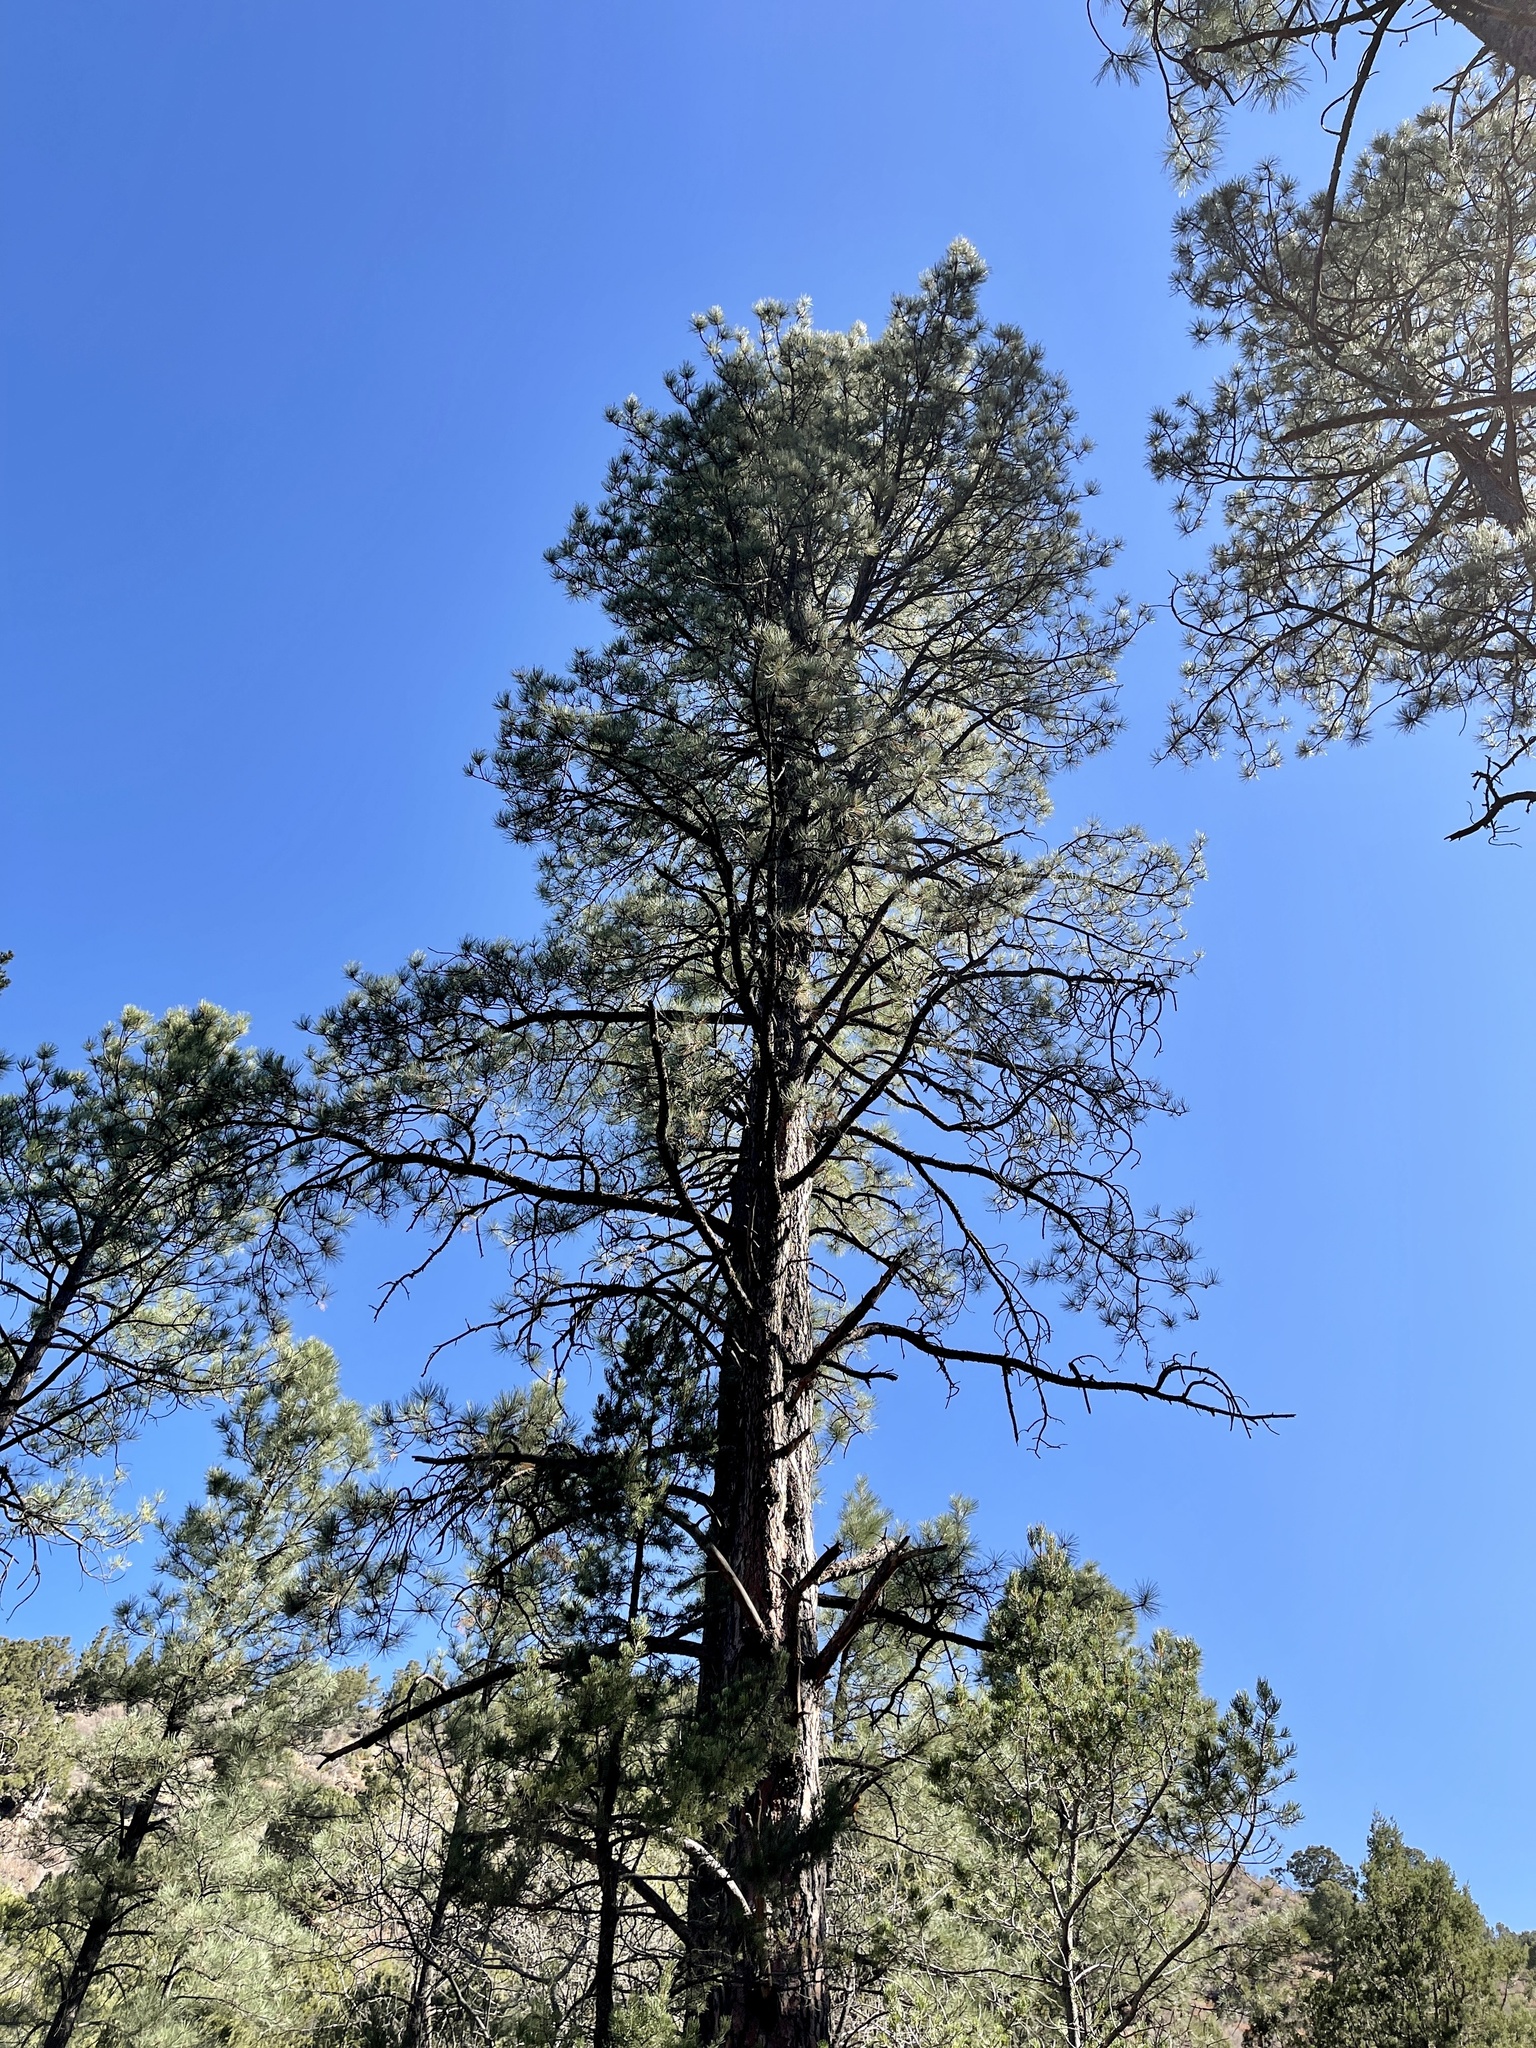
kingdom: Plantae
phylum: Tracheophyta
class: Pinopsida
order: Pinales
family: Pinaceae
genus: Pinus
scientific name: Pinus ponderosa
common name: Western yellow-pine
